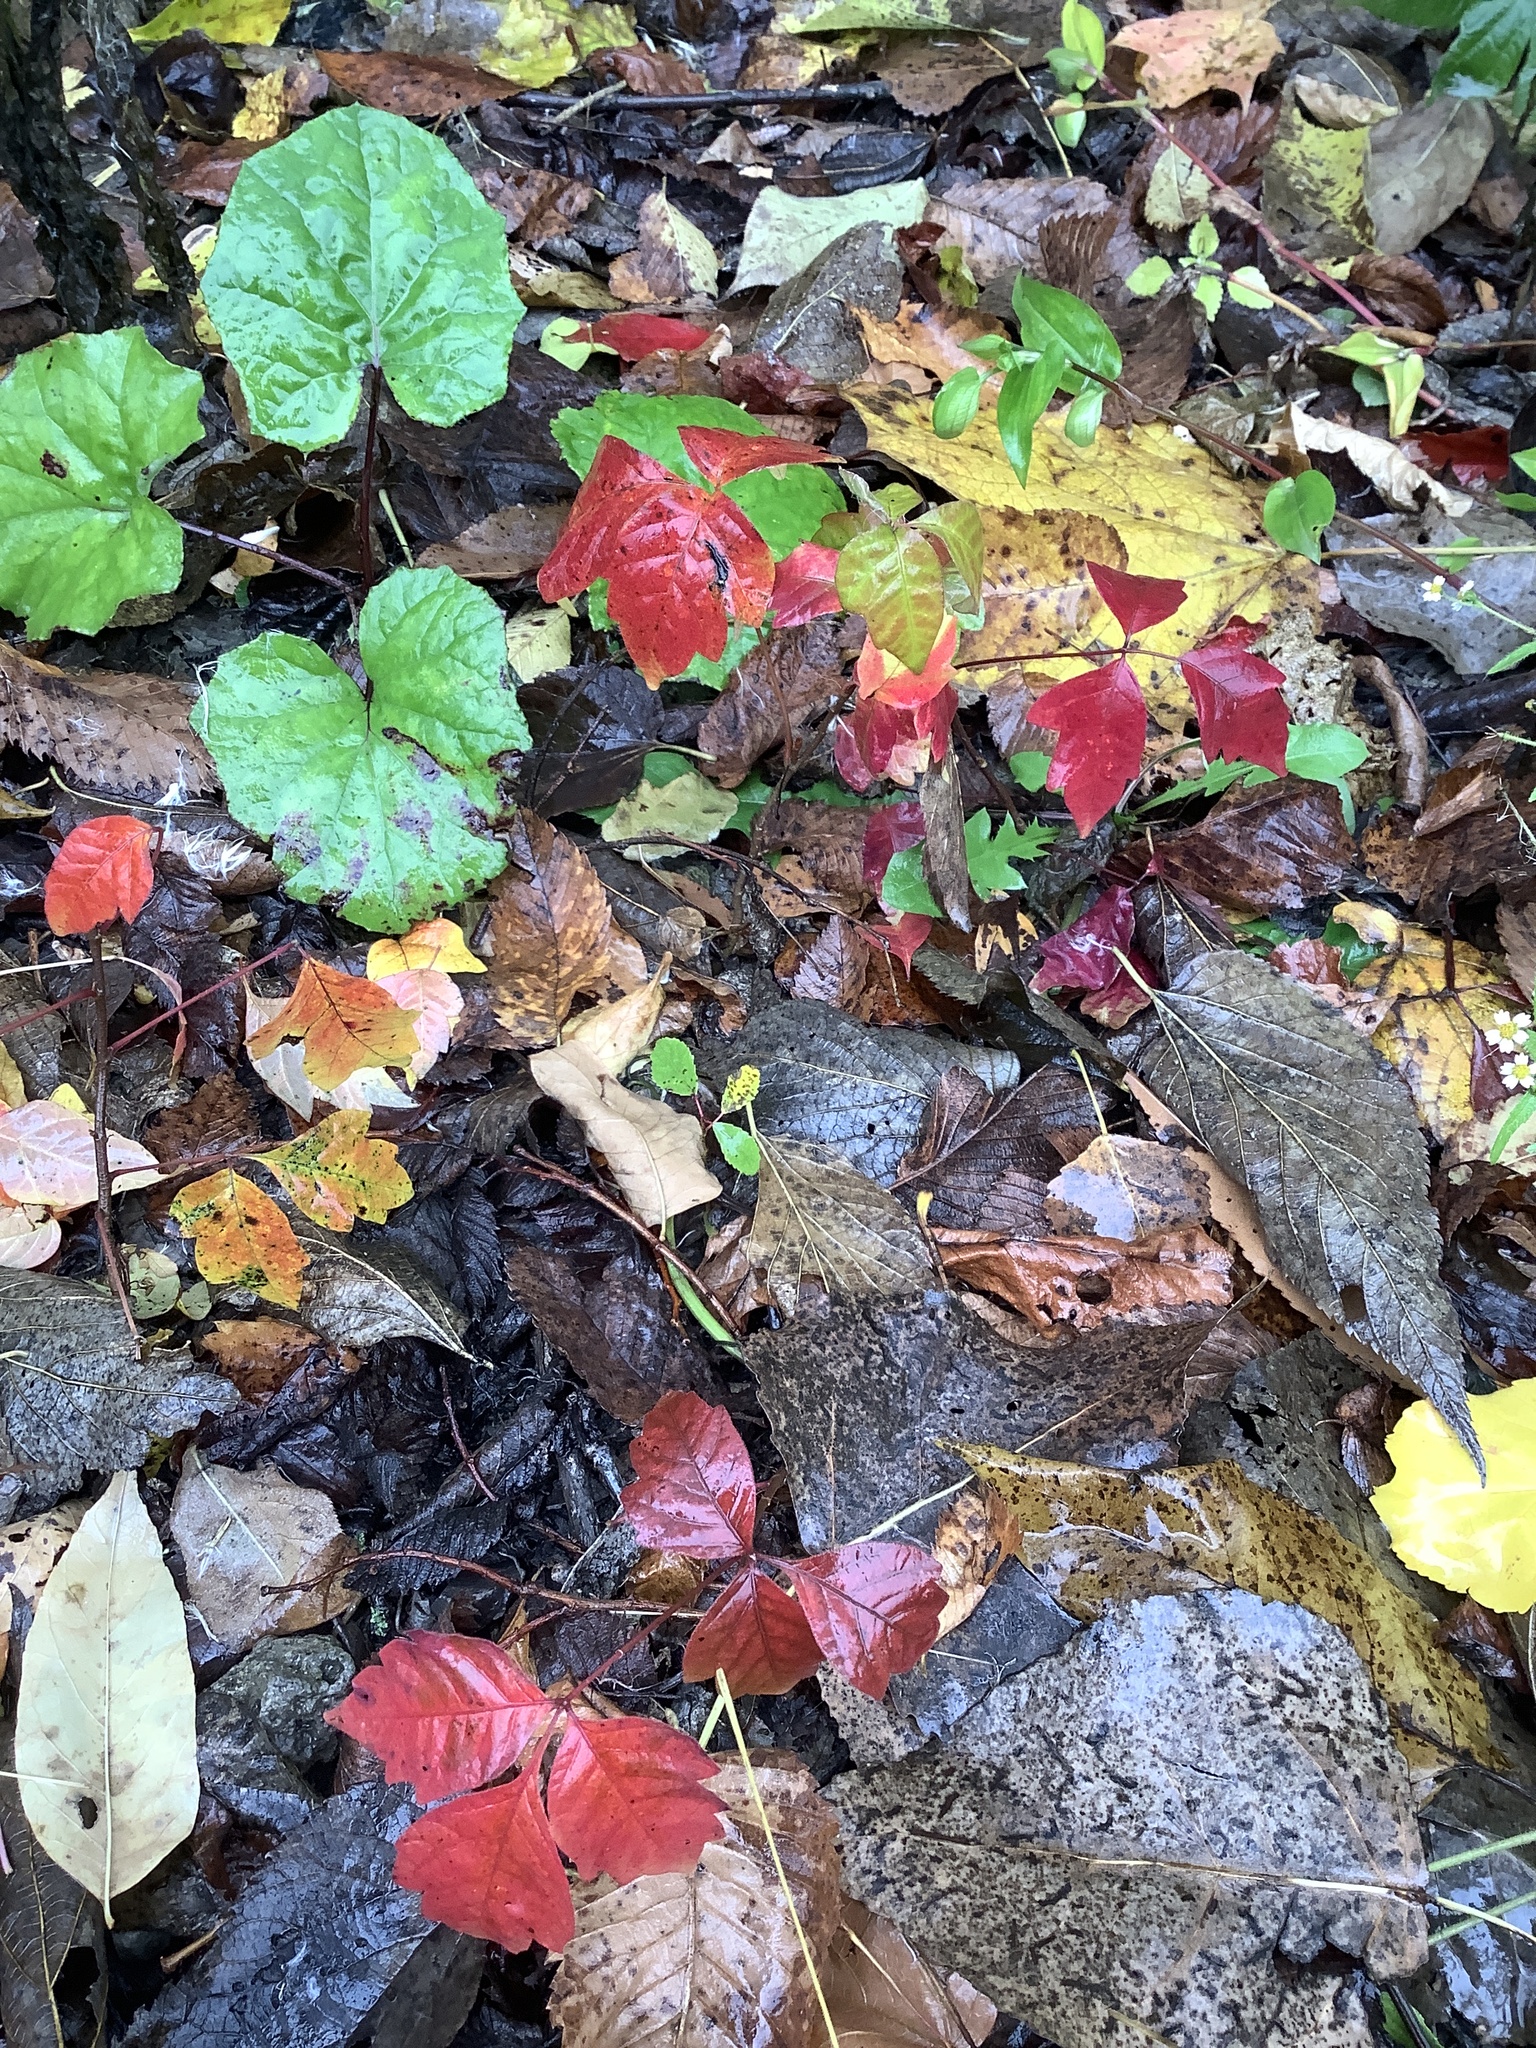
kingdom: Plantae
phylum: Tracheophyta
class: Magnoliopsida
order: Sapindales
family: Anacardiaceae
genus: Toxicodendron
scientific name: Toxicodendron radicans
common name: Poison ivy
